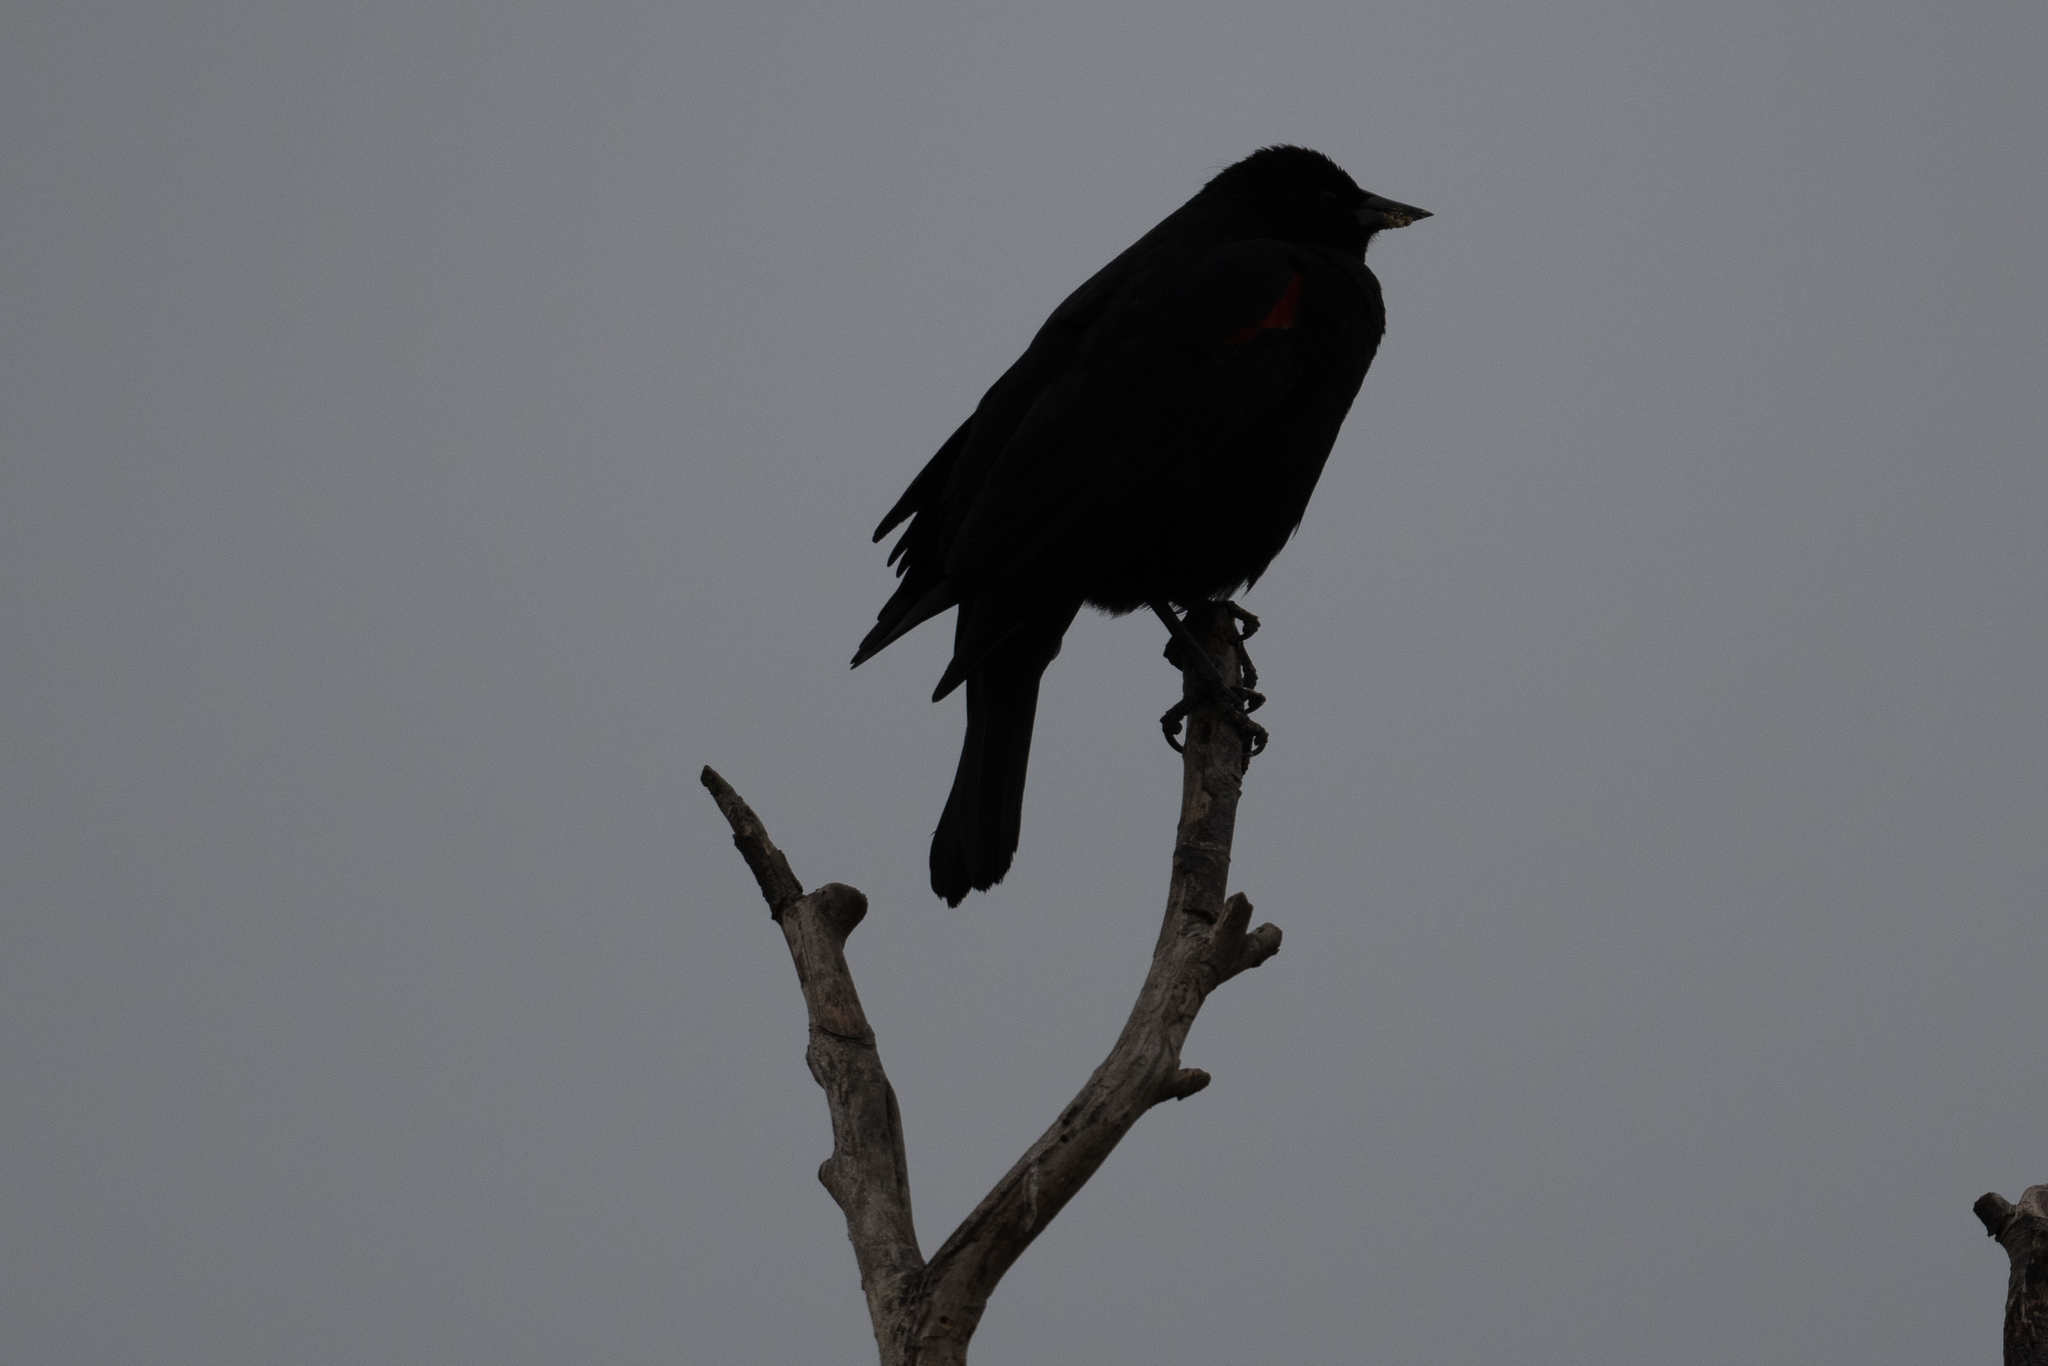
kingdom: Animalia
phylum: Chordata
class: Aves
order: Passeriformes
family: Icteridae
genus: Agelaius
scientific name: Agelaius phoeniceus
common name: Red-winged blackbird
